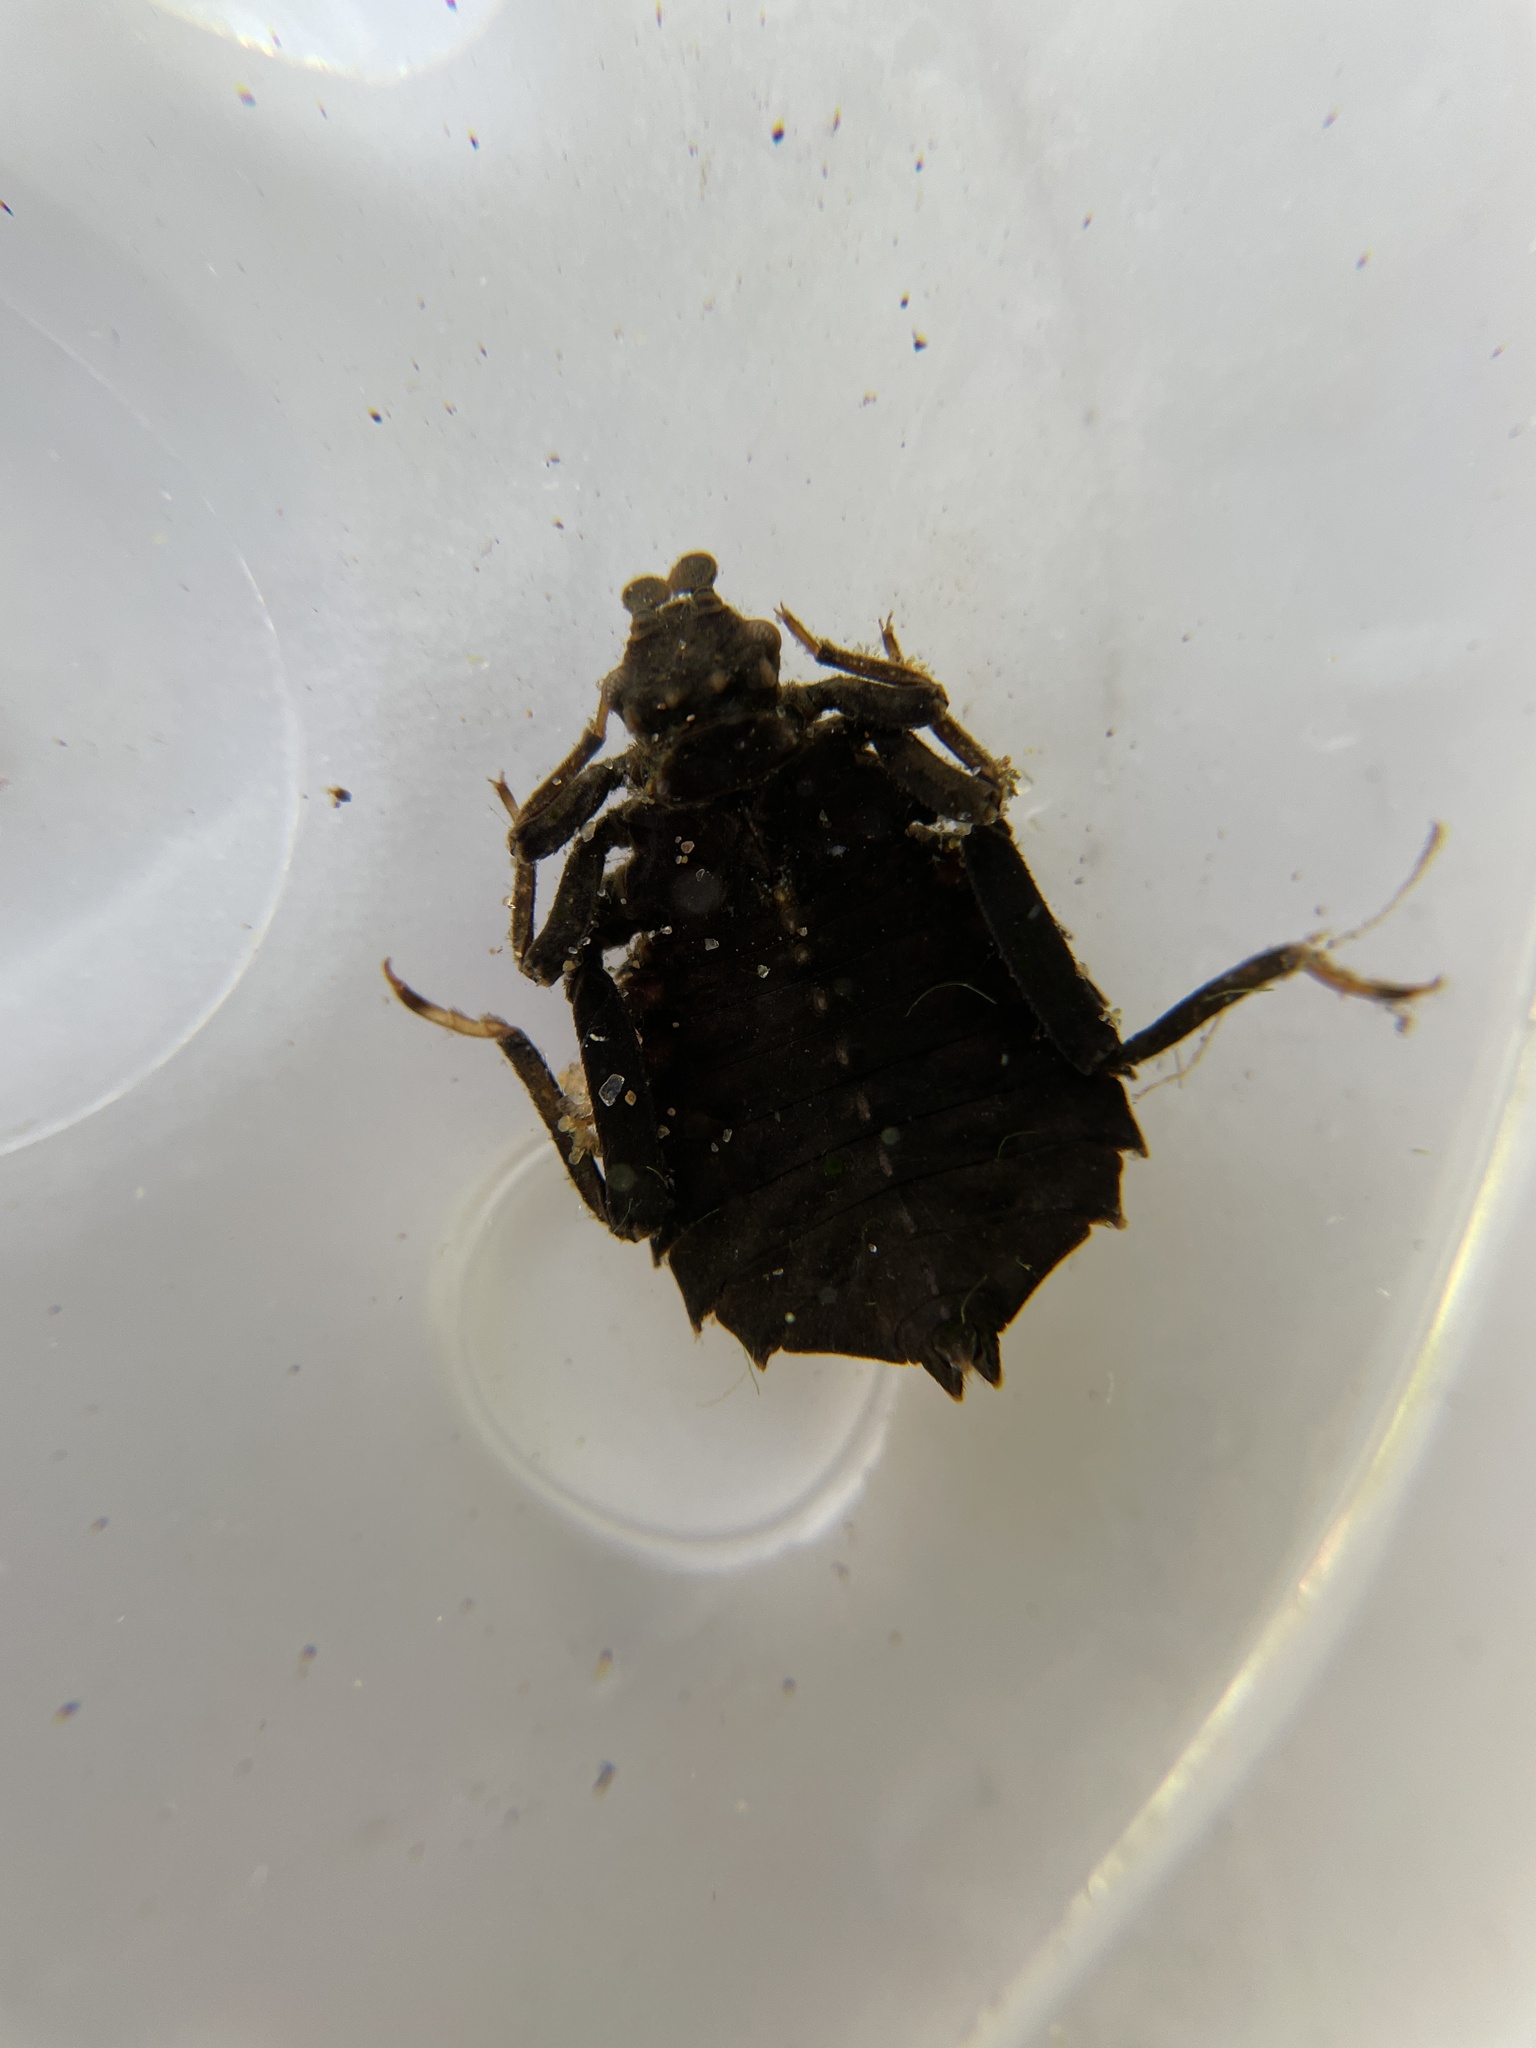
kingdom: Animalia
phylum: Arthropoda
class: Insecta
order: Odonata
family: Gomphidae
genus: Hagenius
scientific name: Hagenius brevistylus
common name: Dragonhunter
